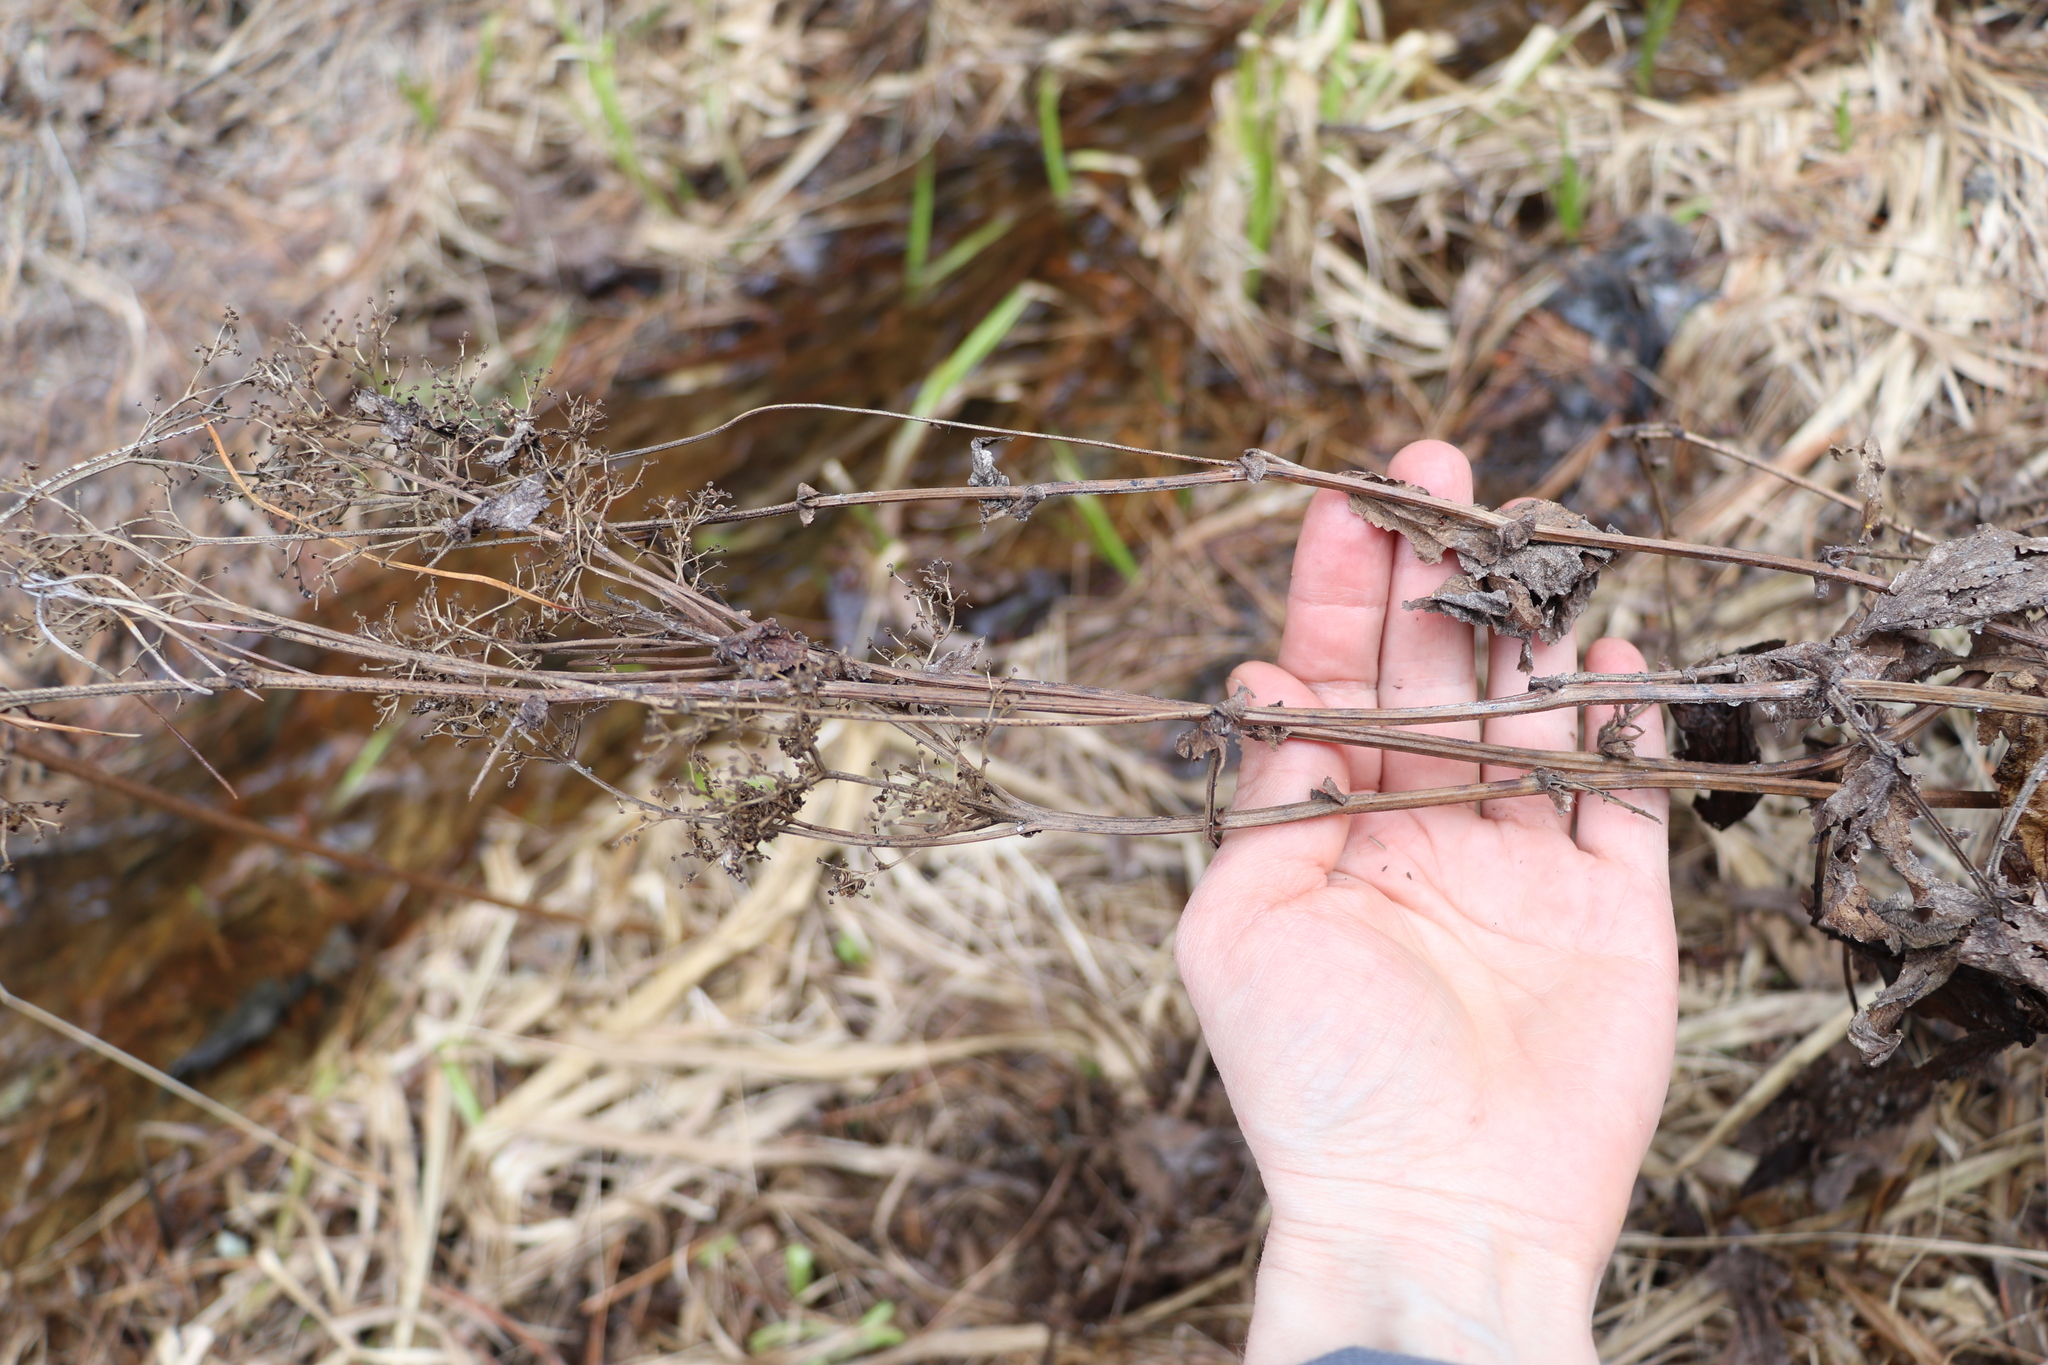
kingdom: Plantae
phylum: Tracheophyta
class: Magnoliopsida
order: Rosales
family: Rosaceae
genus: Filipendula
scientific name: Filipendula ulmaria
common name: Meadowsweet
